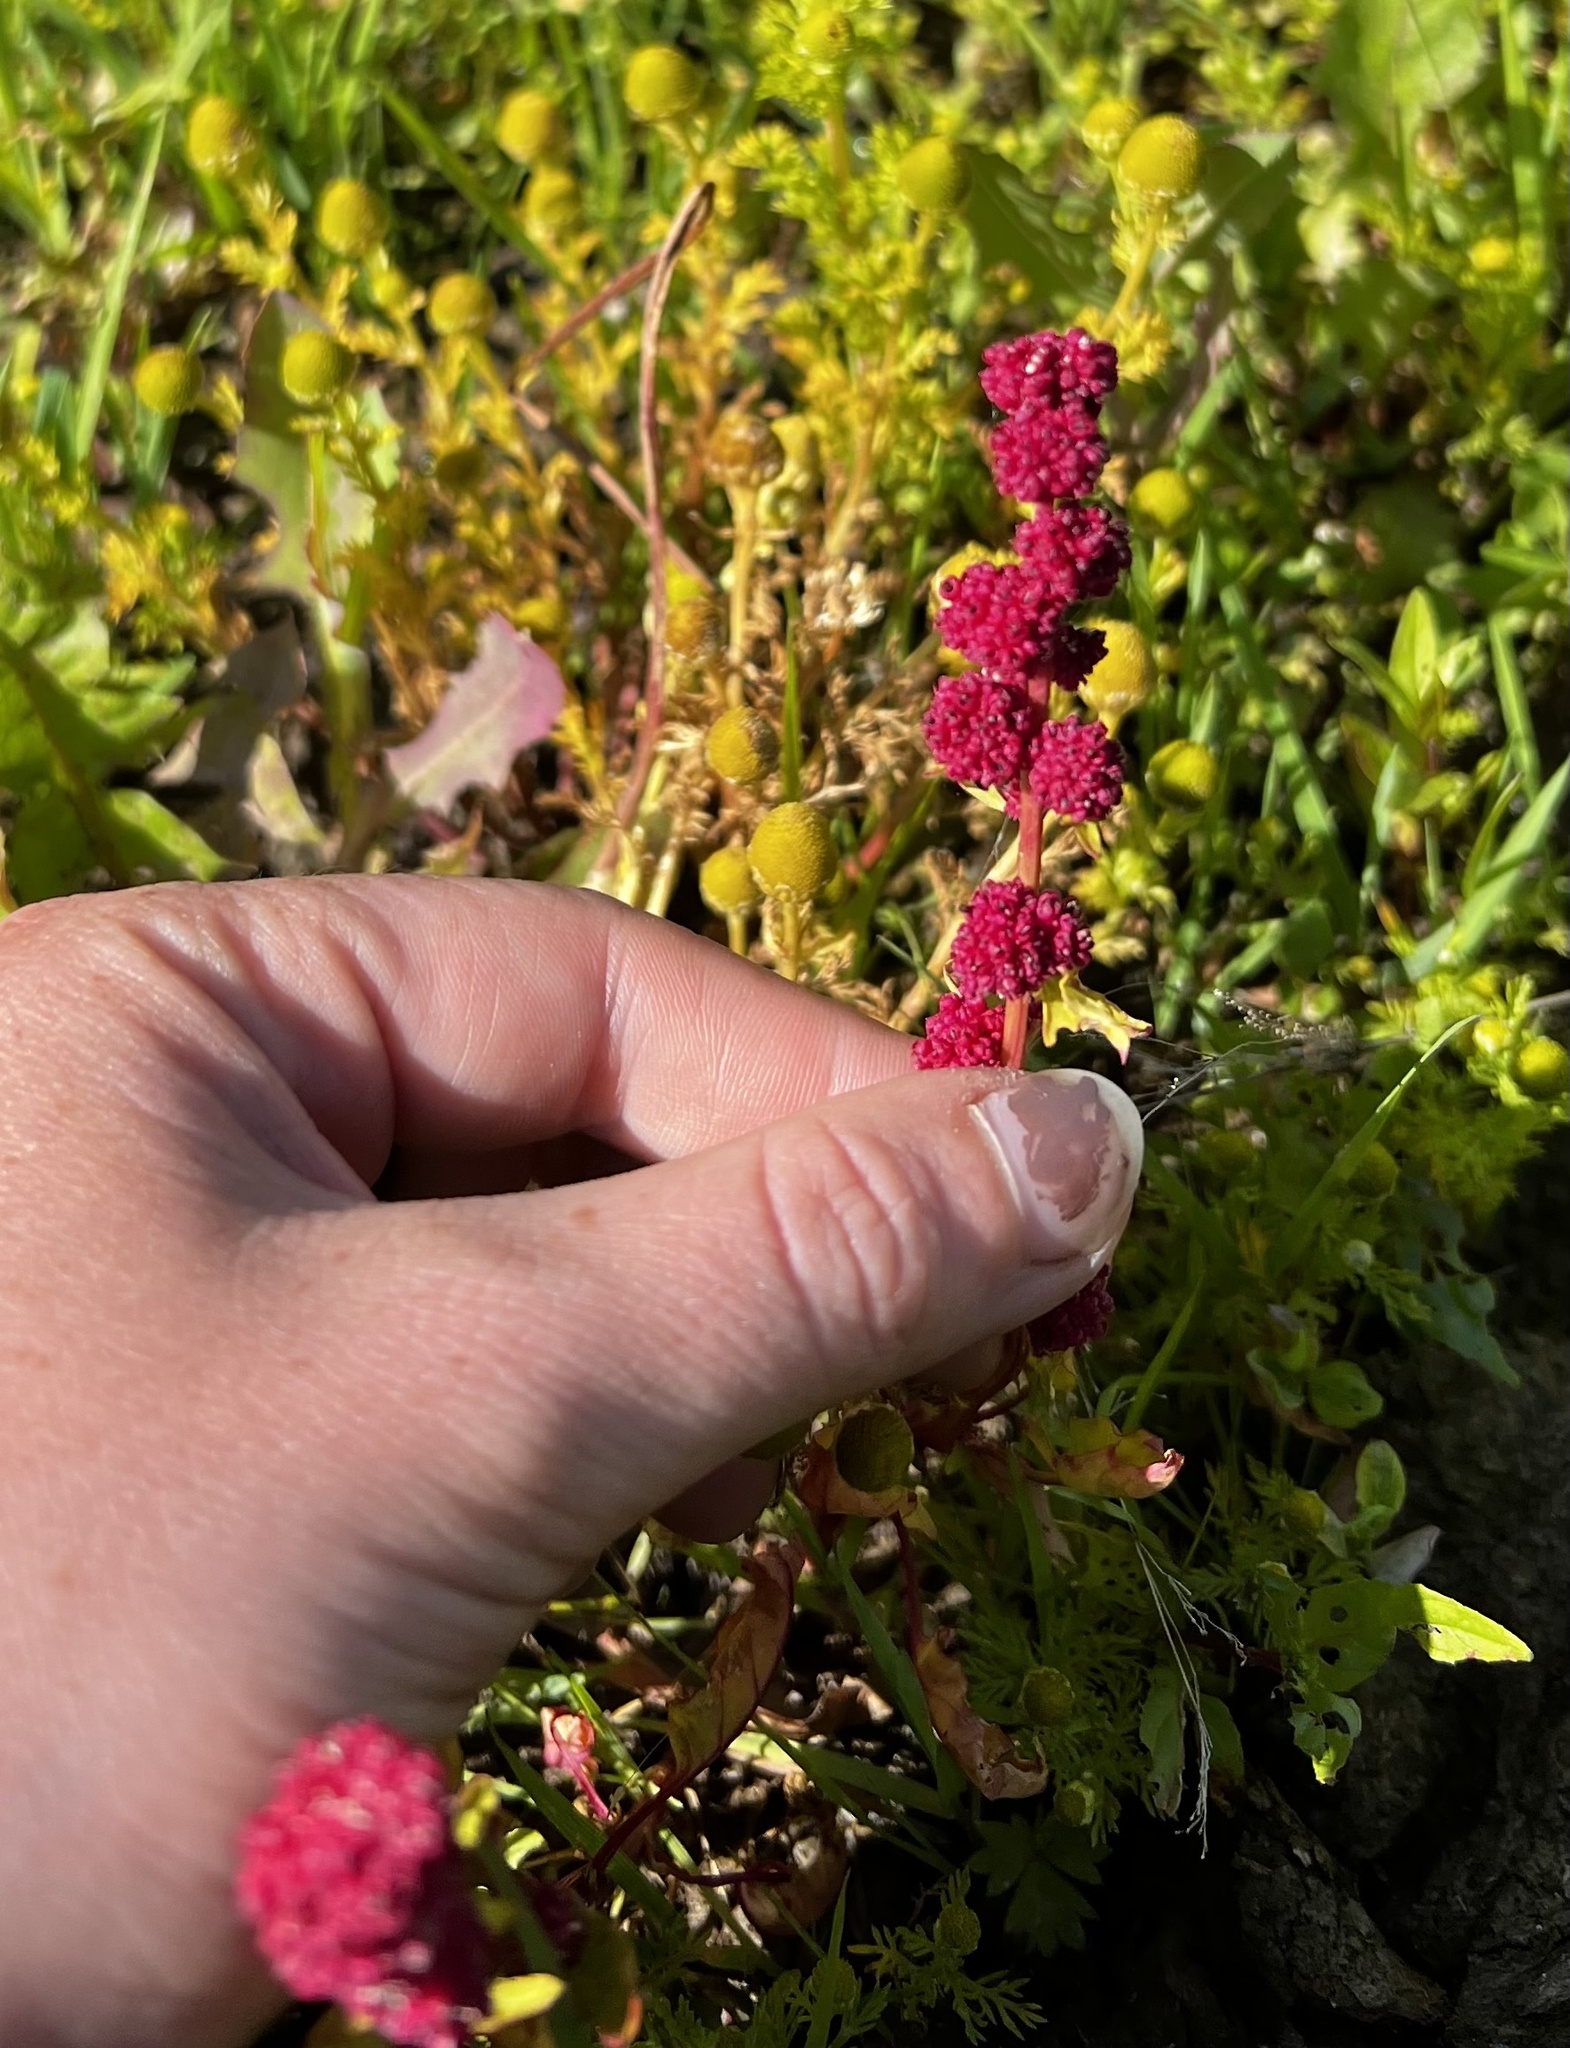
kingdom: Plantae
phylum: Tracheophyta
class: Magnoliopsida
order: Caryophyllales
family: Amaranthaceae
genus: Blitum
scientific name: Blitum capitatum
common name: Strawberry-blight
